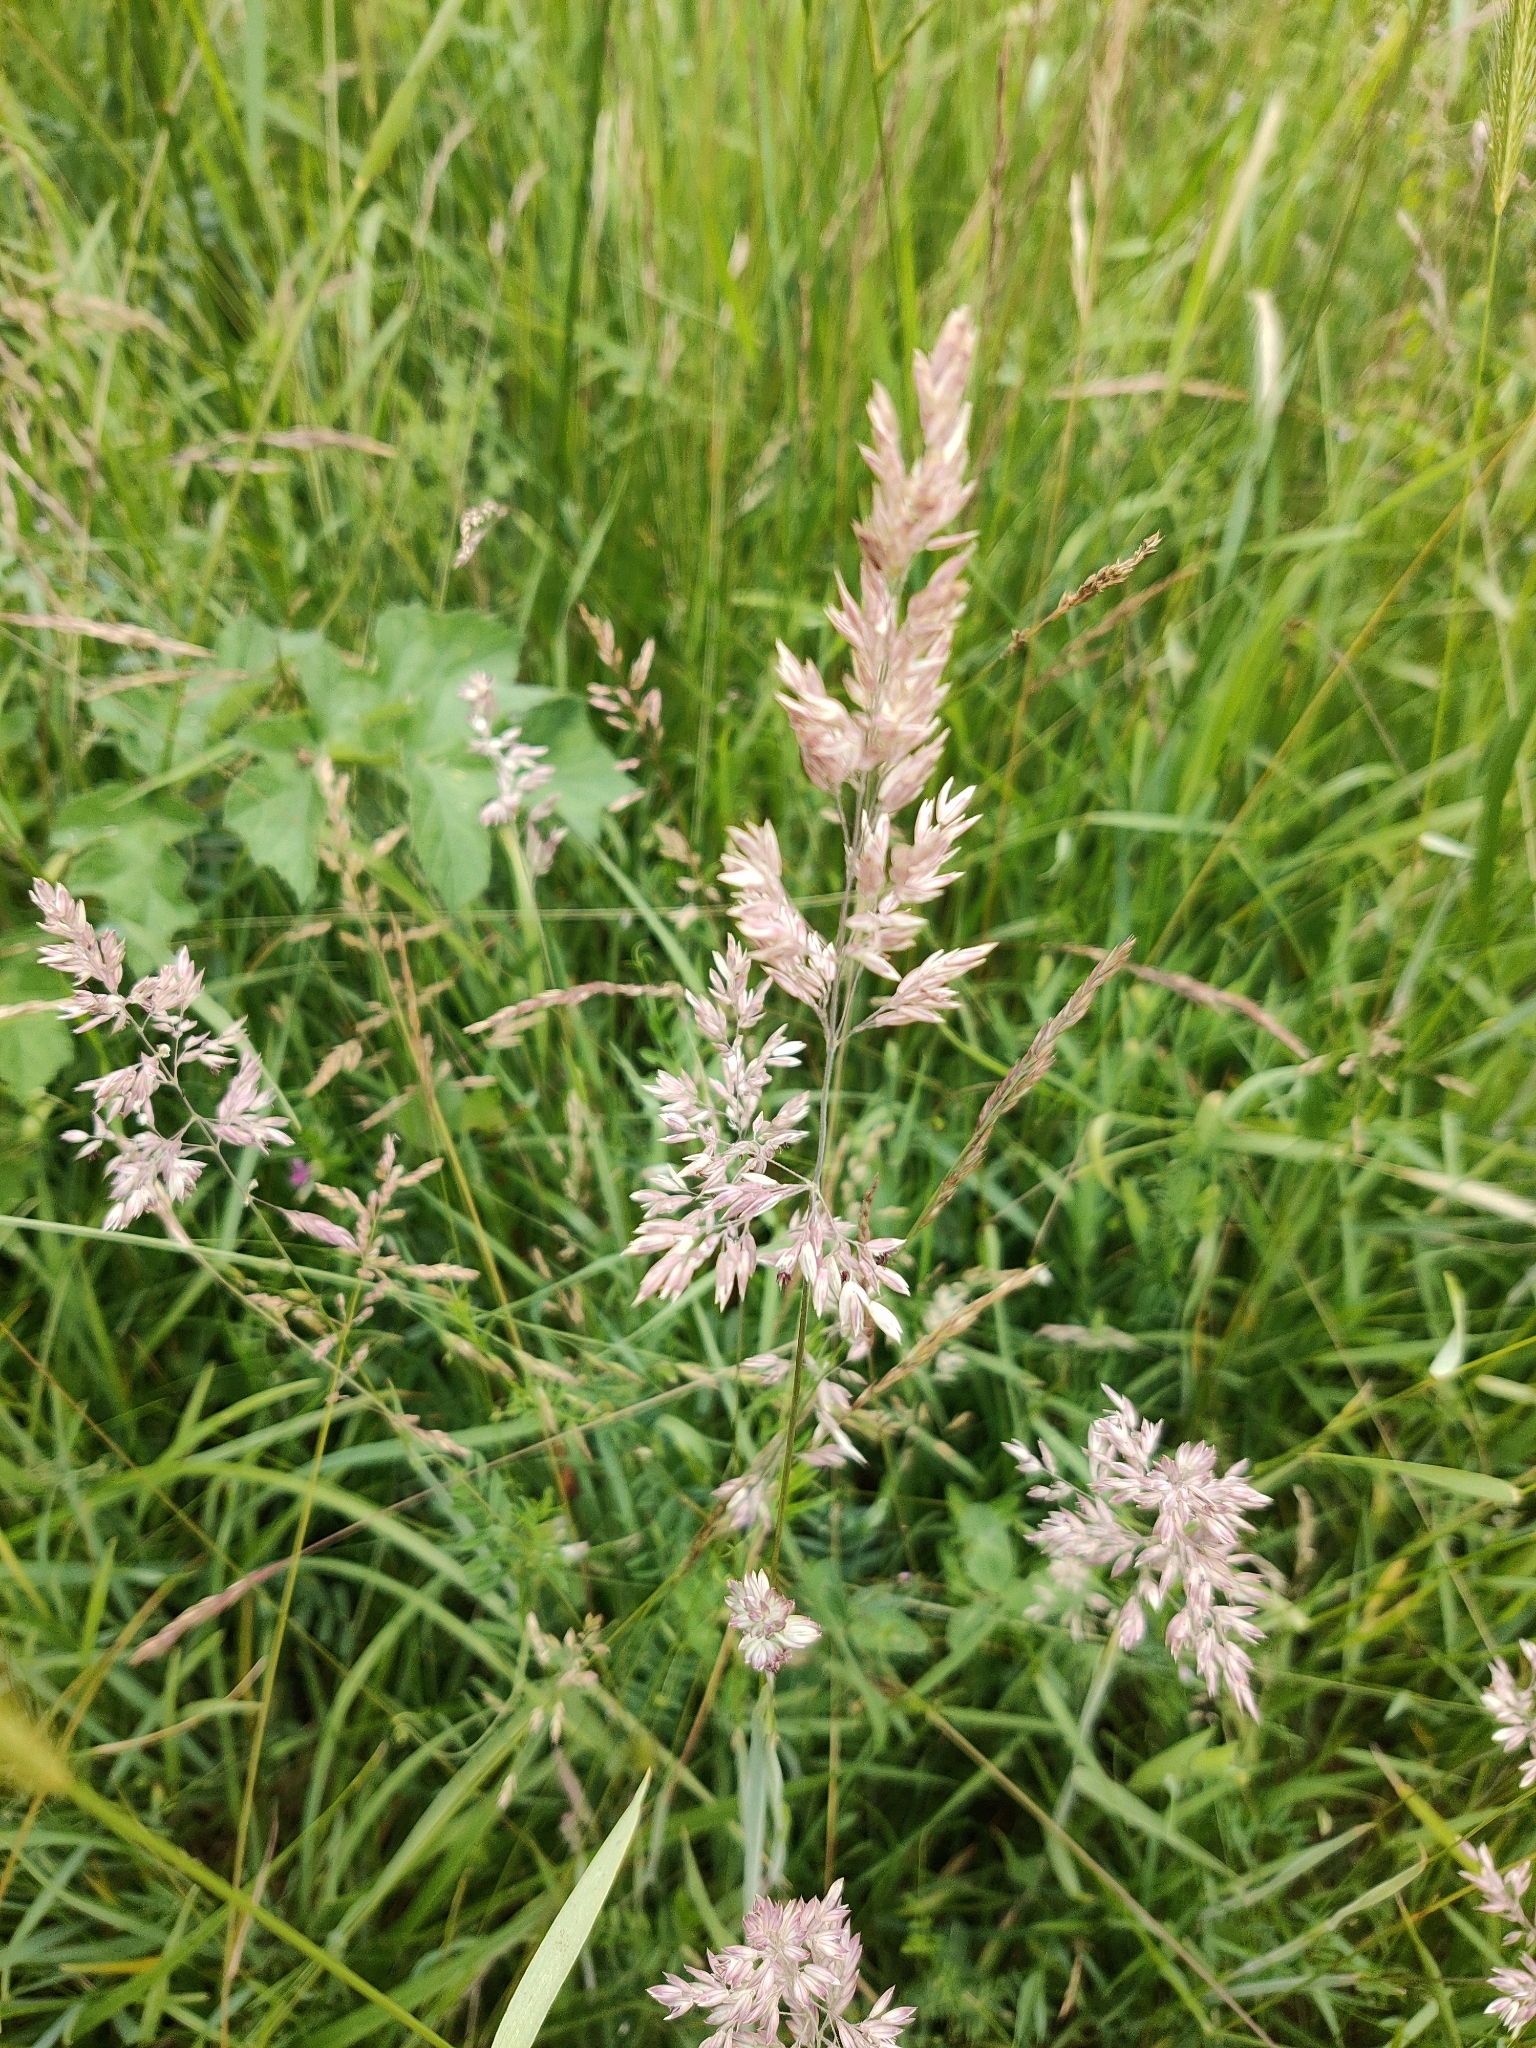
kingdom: Plantae
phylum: Tracheophyta
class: Liliopsida
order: Poales
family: Poaceae
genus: Holcus
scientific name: Holcus lanatus
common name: Yorkshire-fog
